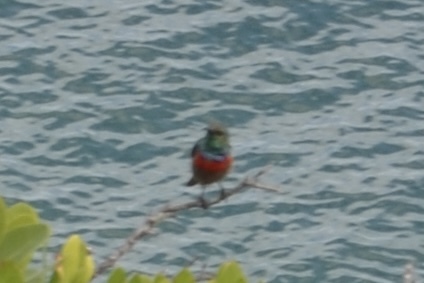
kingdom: Animalia
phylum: Chordata
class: Aves
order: Passeriformes
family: Nectariniidae
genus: Cinnyris
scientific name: Cinnyris chalybeus
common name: Southern double-collared sunbird
